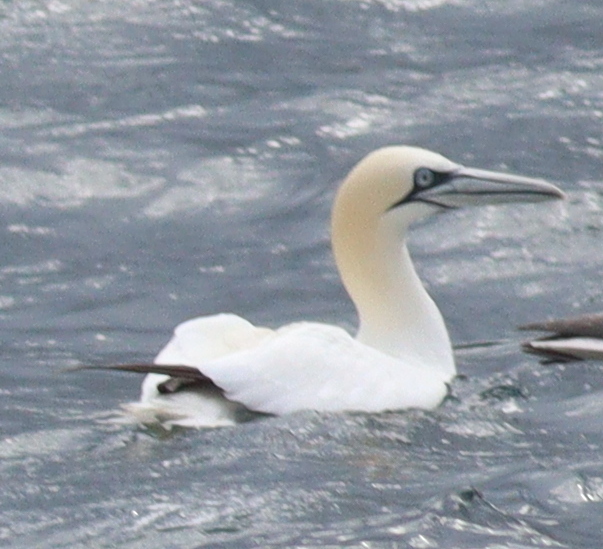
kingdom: Animalia
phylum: Chordata
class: Aves
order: Suliformes
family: Sulidae
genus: Morus
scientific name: Morus bassanus
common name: Northern gannet
